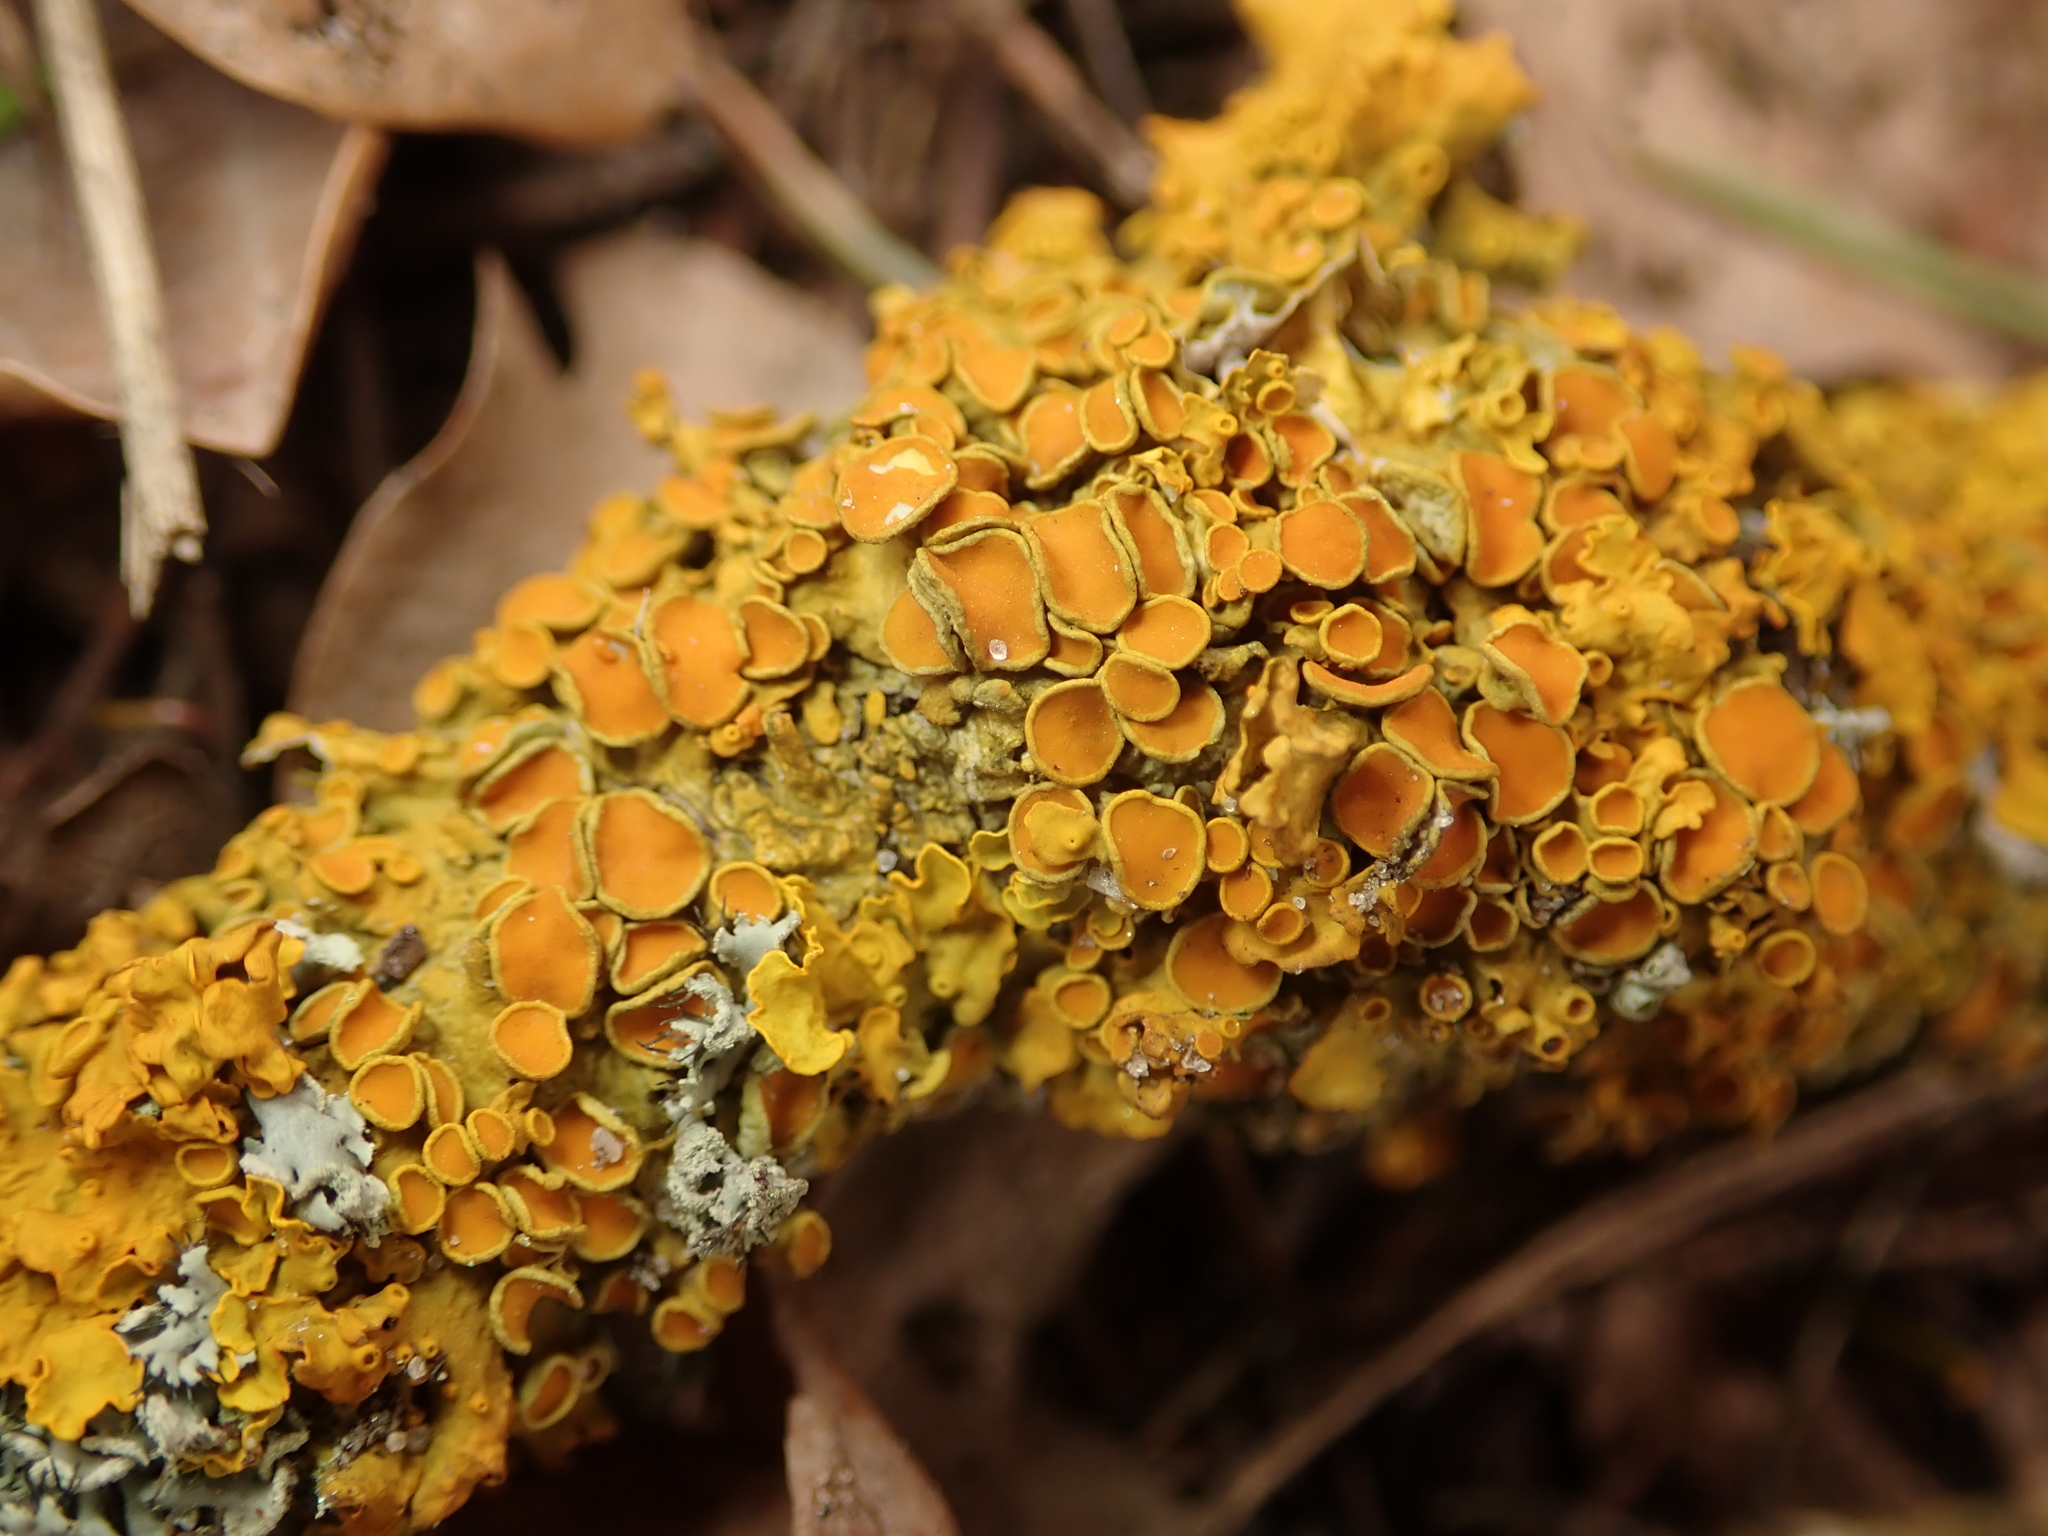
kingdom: Fungi
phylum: Ascomycota
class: Lecanoromycetes
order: Teloschistales
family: Teloschistaceae
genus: Xanthoria
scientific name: Xanthoria parietina
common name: Common orange lichen
